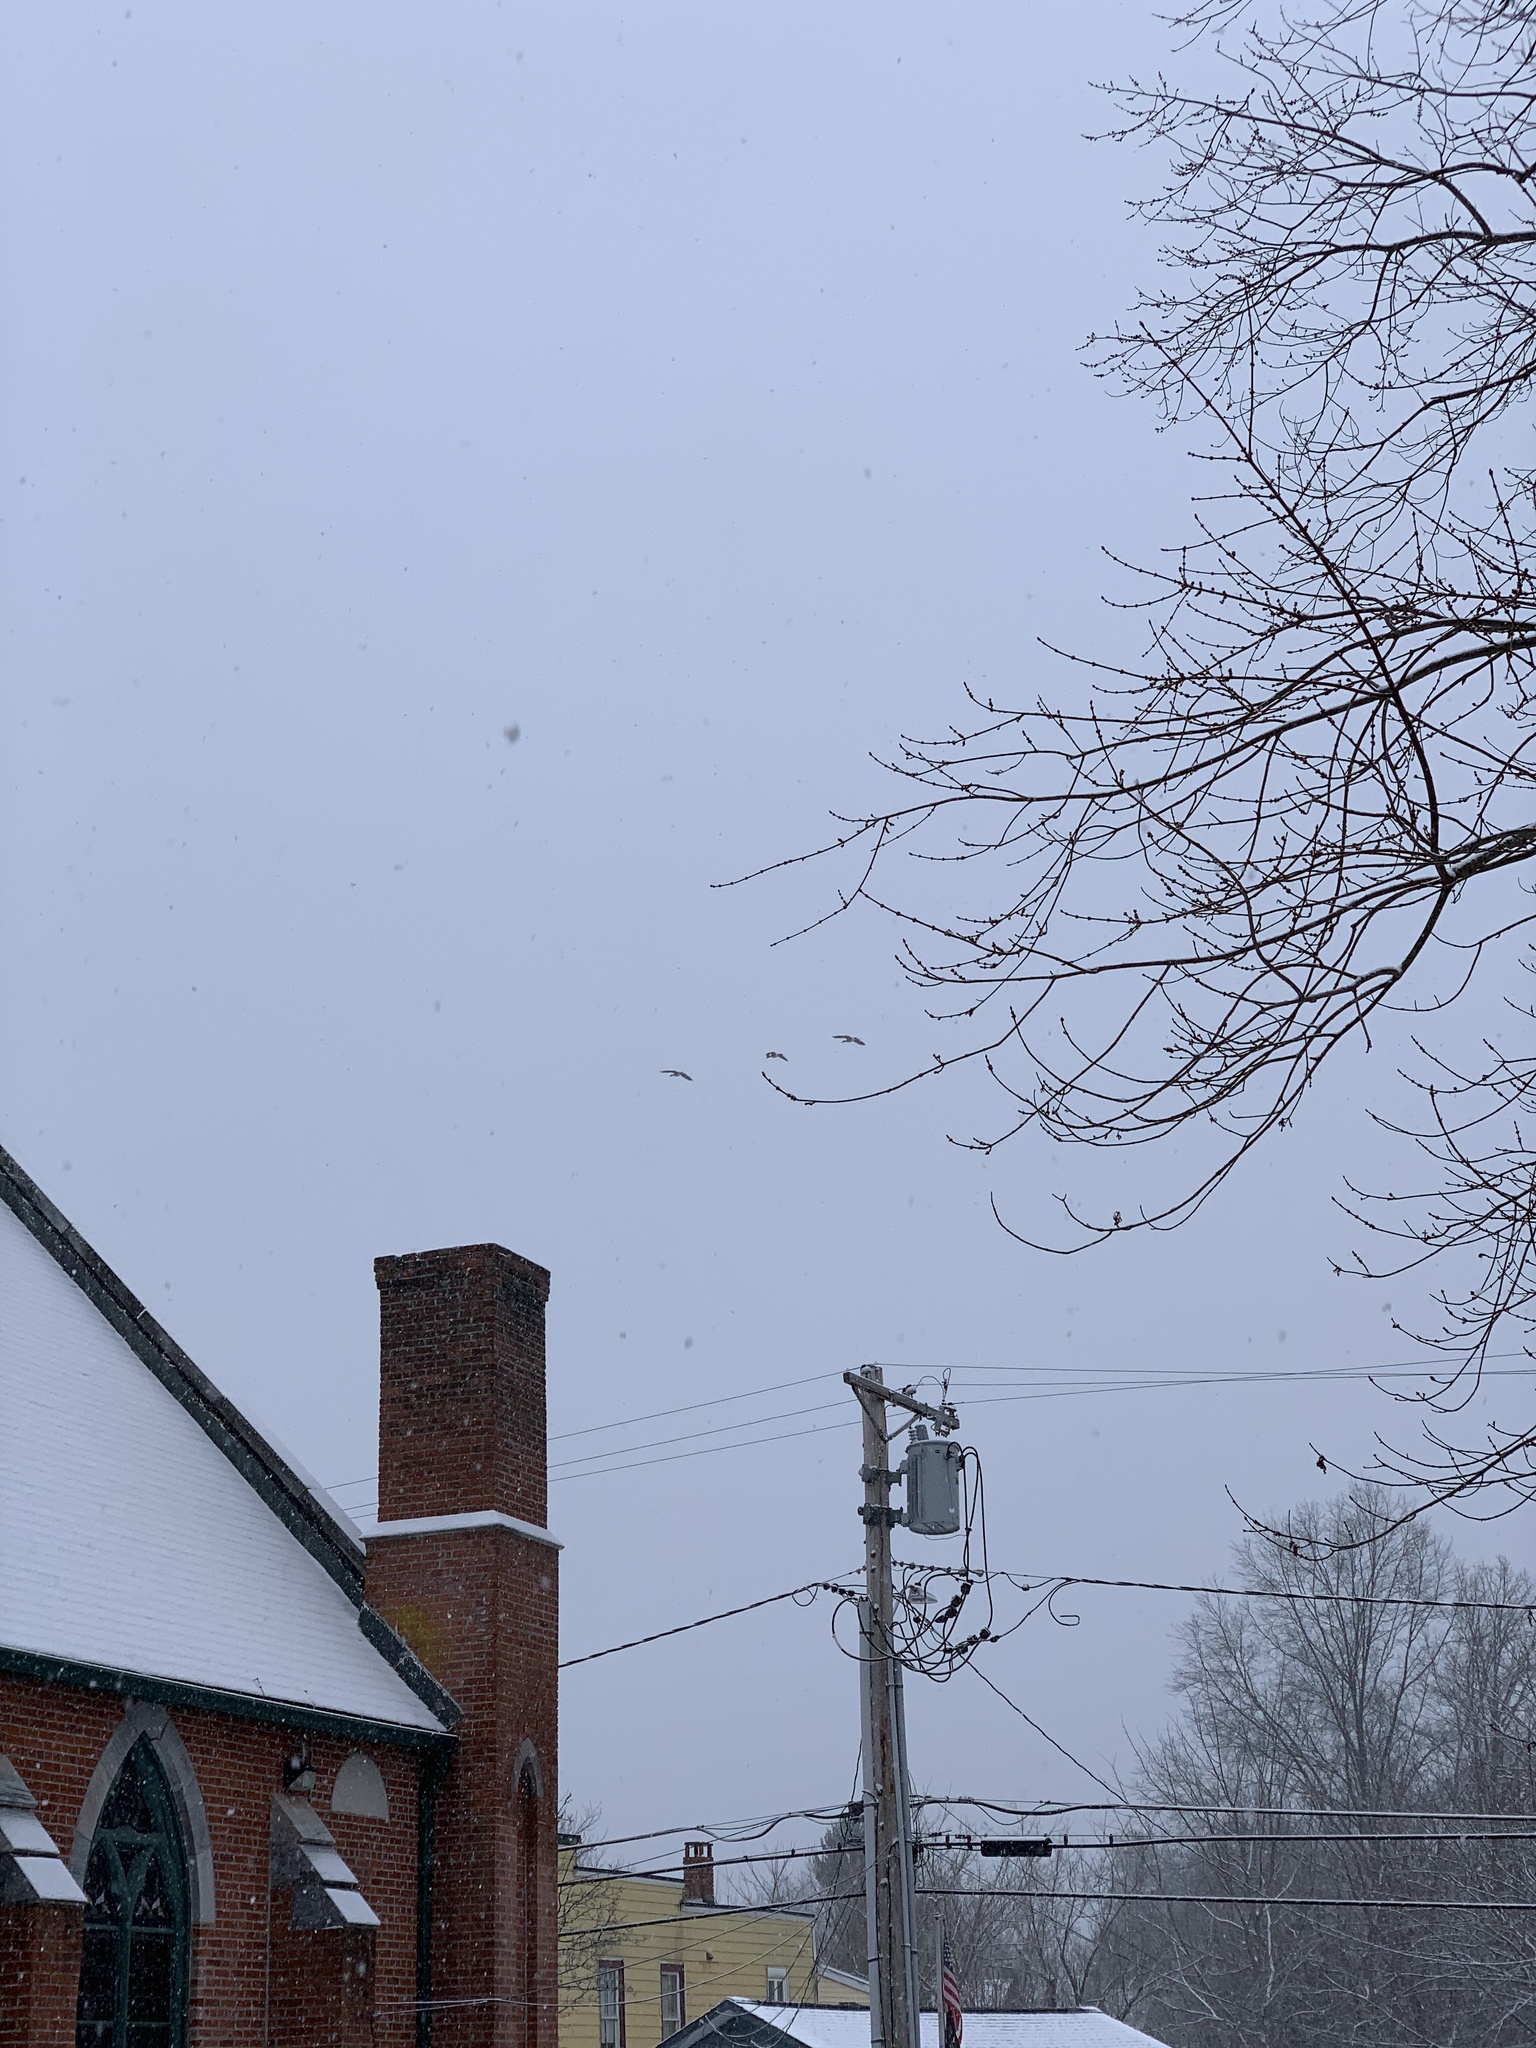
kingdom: Animalia
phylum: Chordata
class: Aves
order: Anseriformes
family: Anatidae
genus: Branta
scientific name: Branta canadensis
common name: Canada goose
